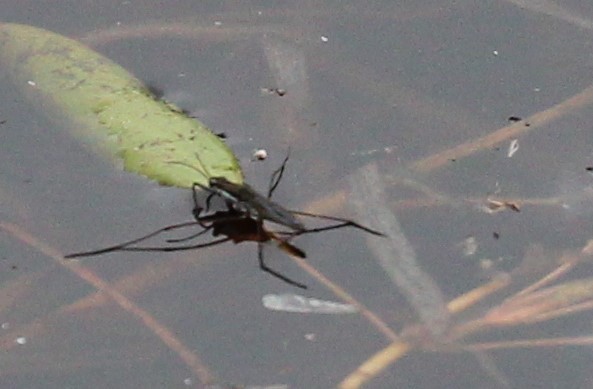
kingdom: Animalia
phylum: Arthropoda
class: Insecta
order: Hemiptera
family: Gerridae
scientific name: Gerridae
